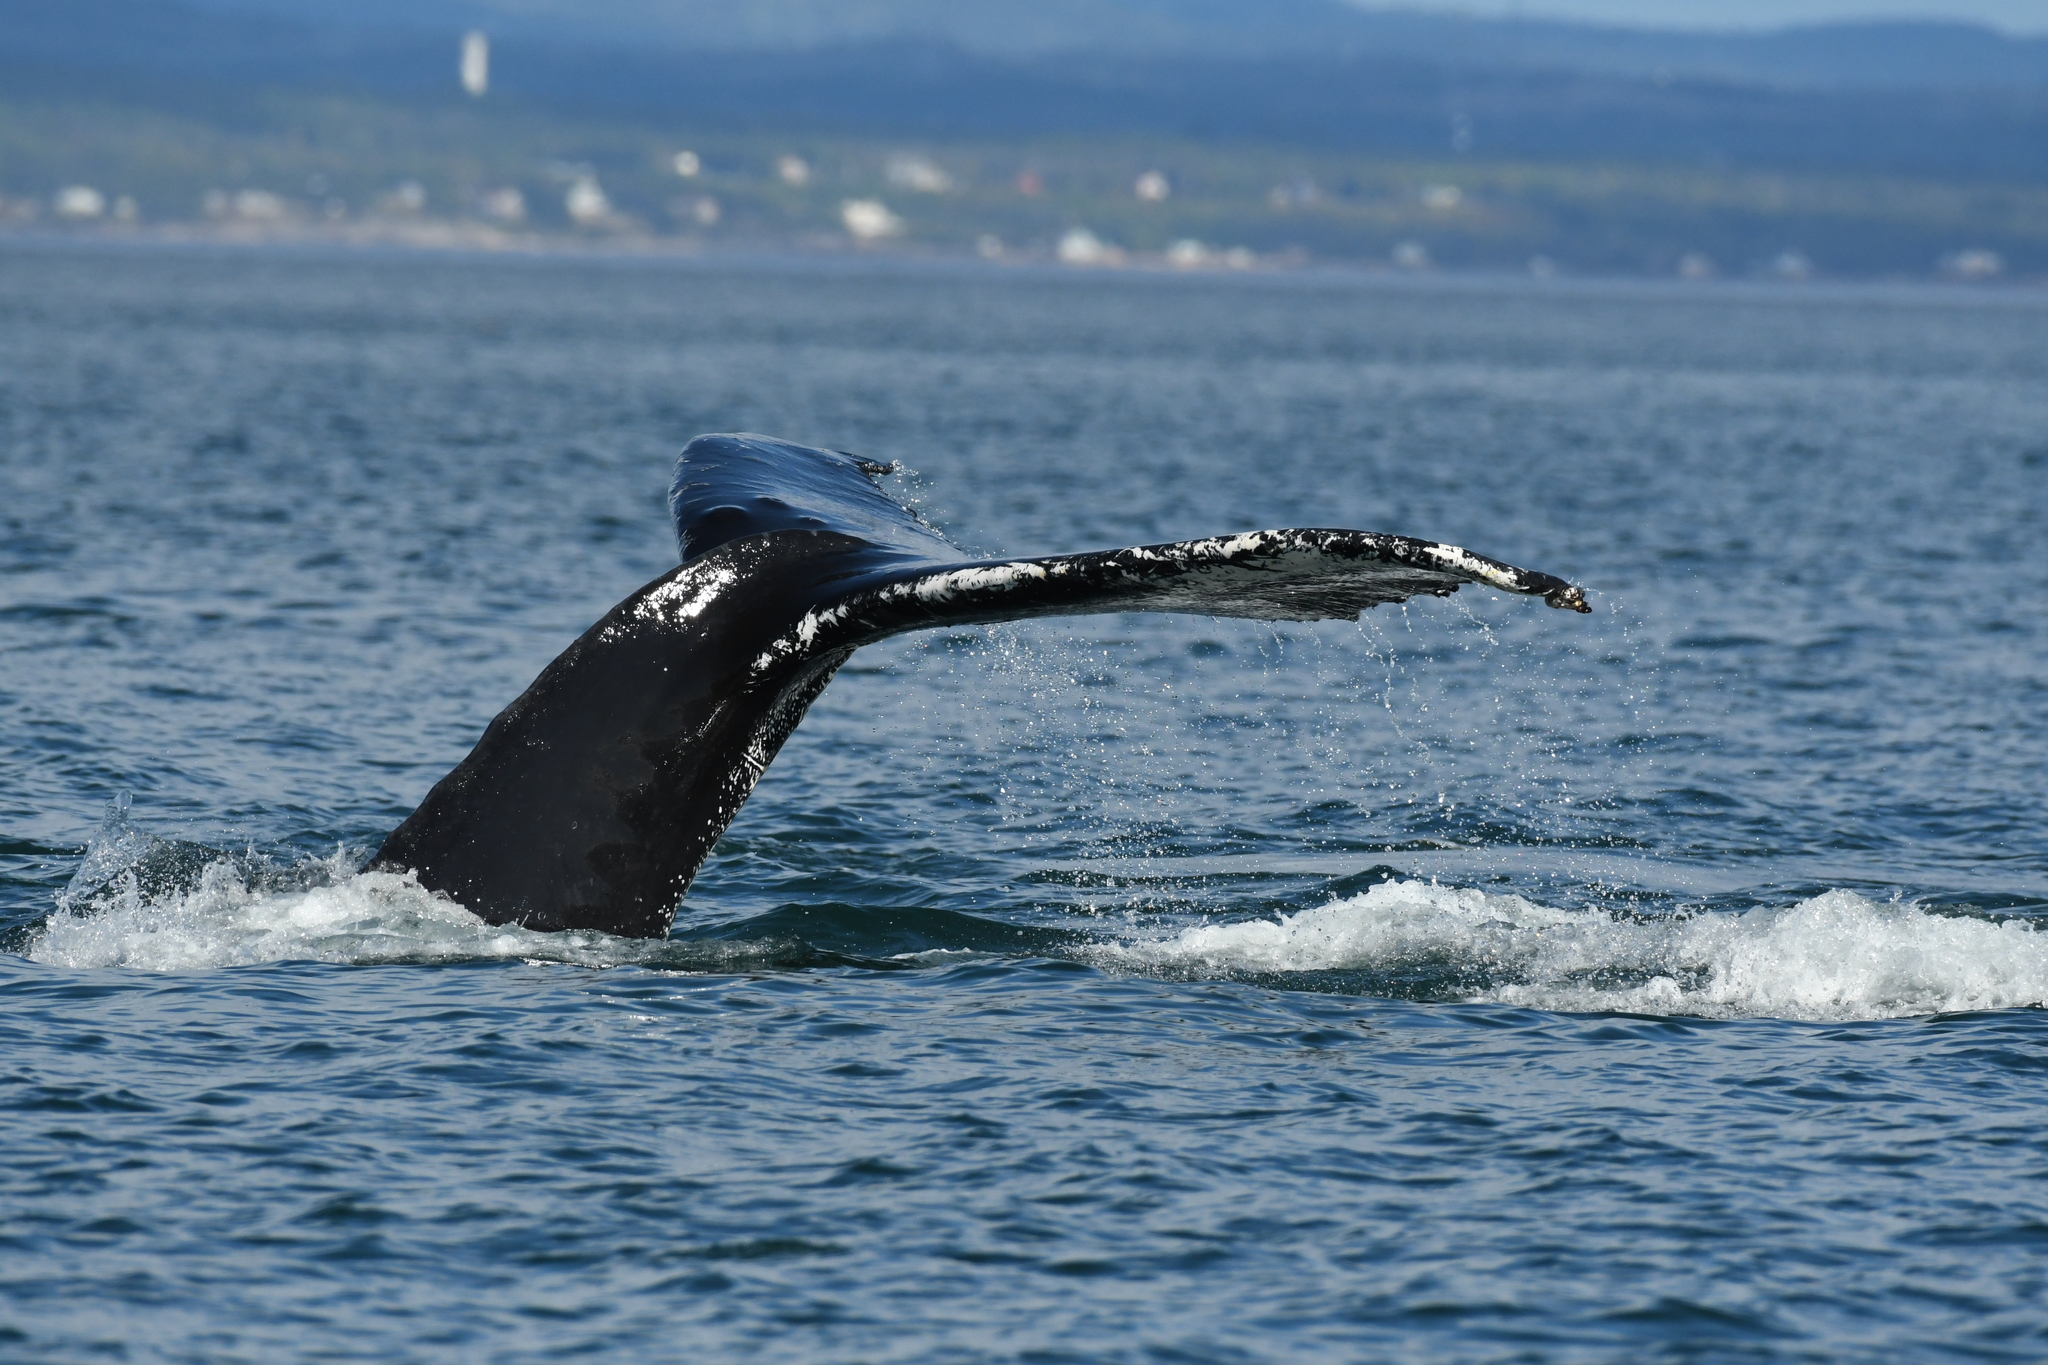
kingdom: Animalia
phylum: Chordata
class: Mammalia
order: Cetacea
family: Balaenopteridae
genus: Megaptera
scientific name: Megaptera novaeangliae
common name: Humpback whale
